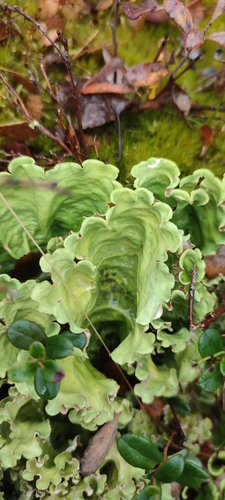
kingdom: Fungi
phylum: Ascomycota
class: Lecanoromycetes
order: Peltigerales
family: Nephromataceae
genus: Nephroma
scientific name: Nephroma arcticum
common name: Arctic kidney-lichen
